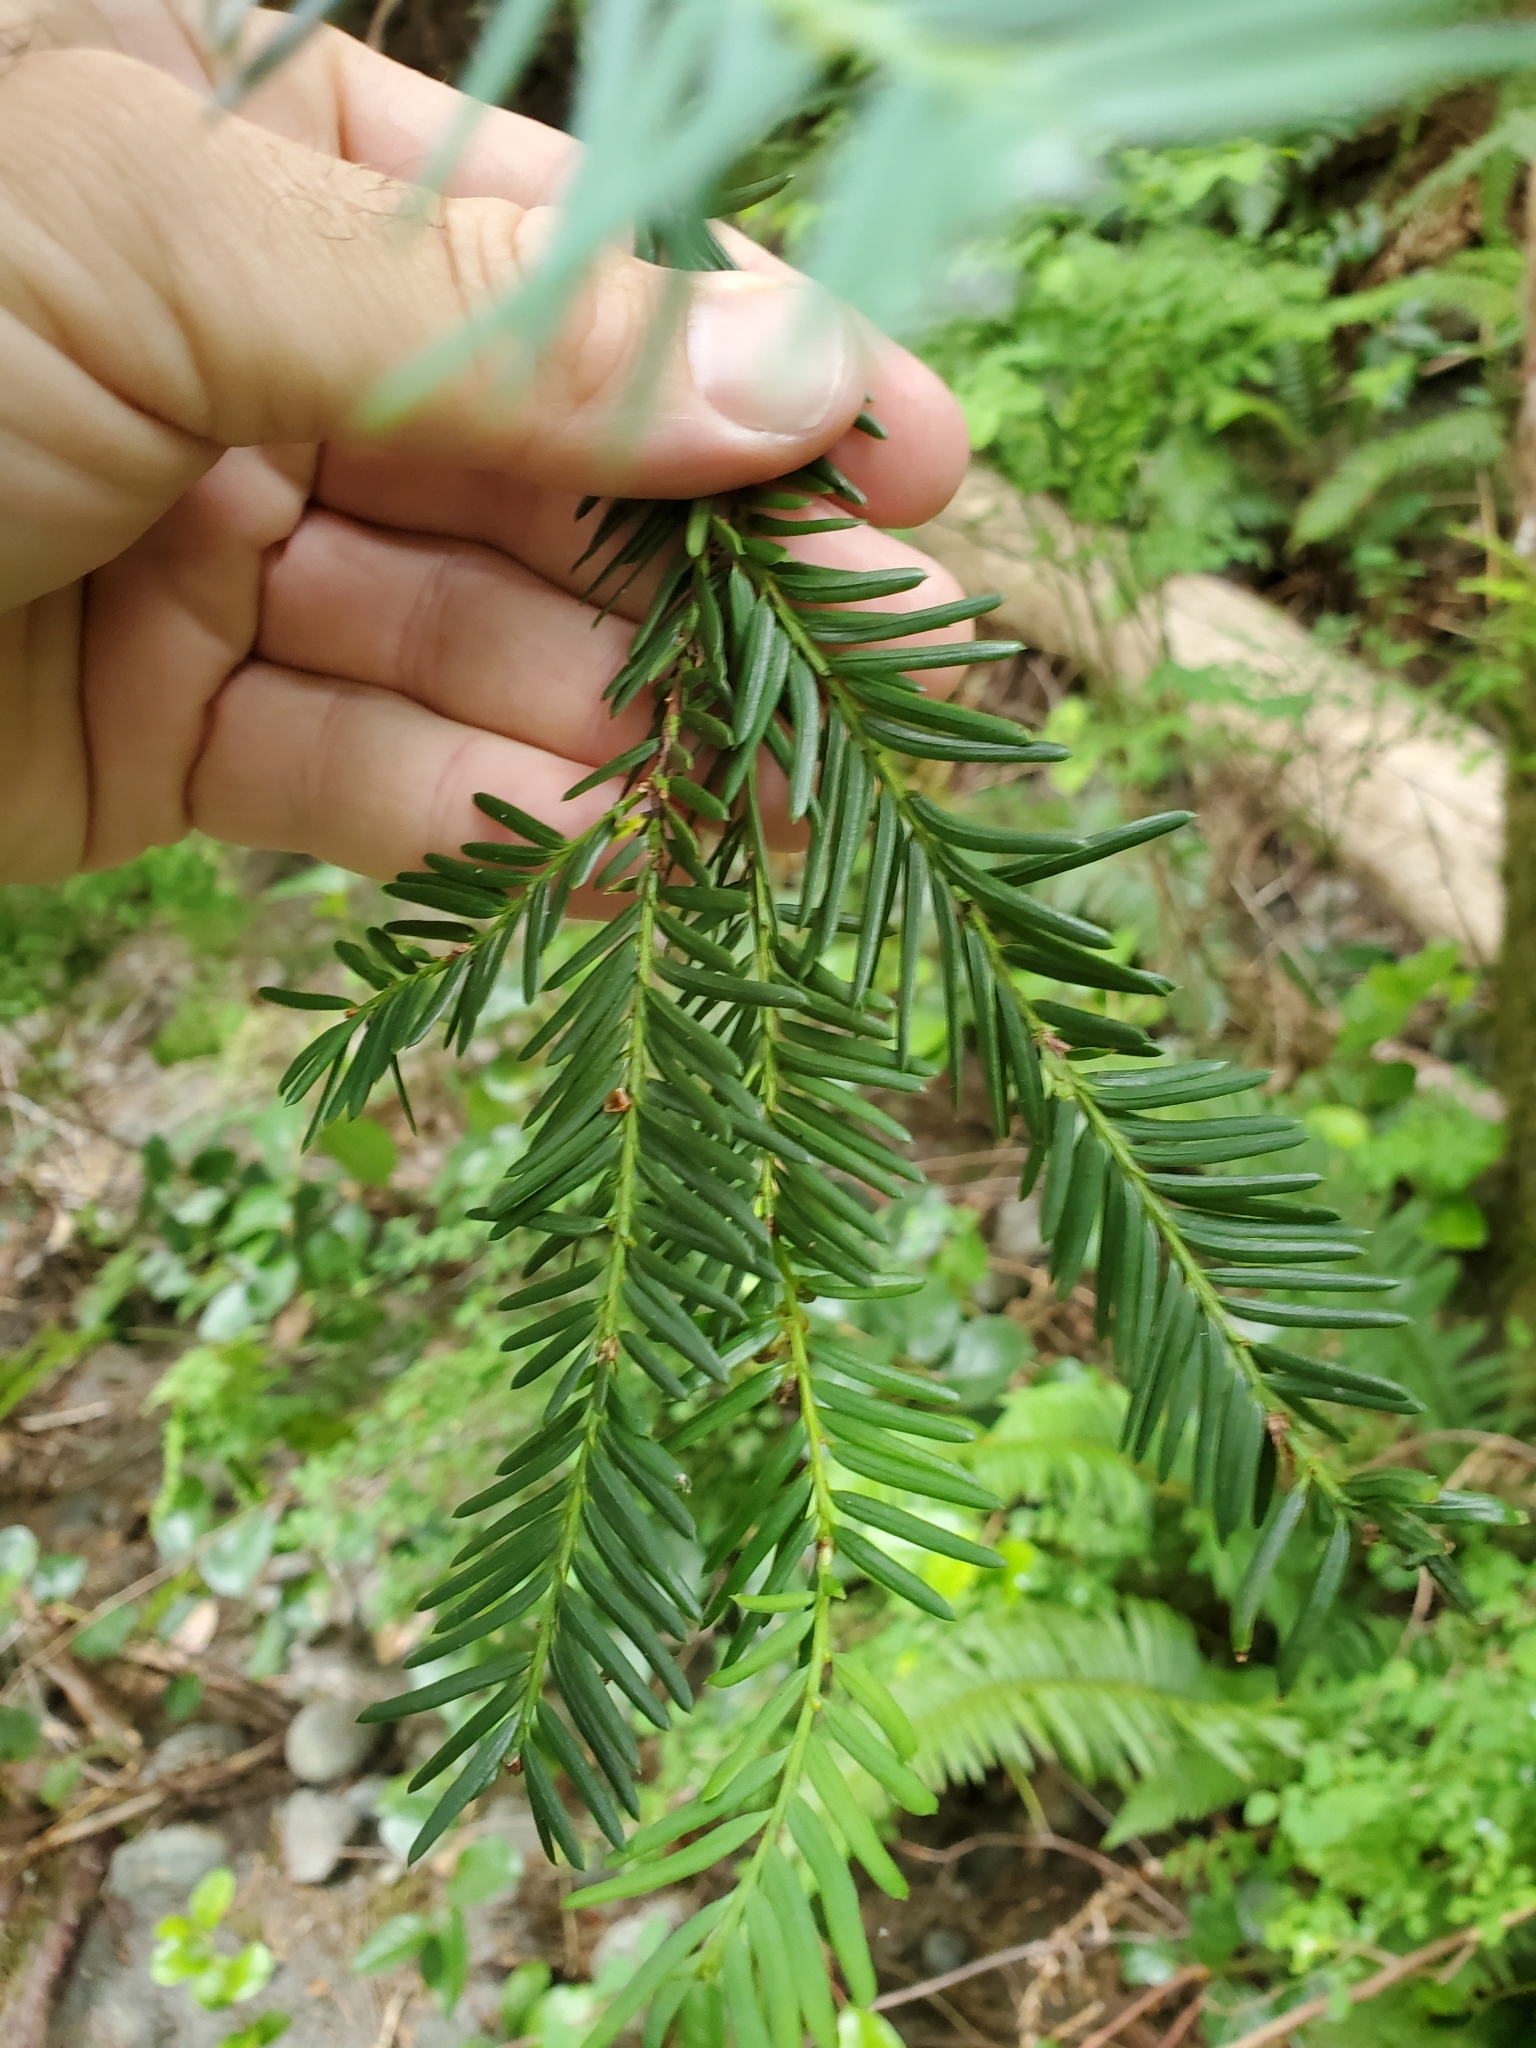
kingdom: Plantae
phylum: Tracheophyta
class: Pinopsida
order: Pinales
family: Taxaceae
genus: Taxus
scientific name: Taxus brevifolia
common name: Pacific yew
